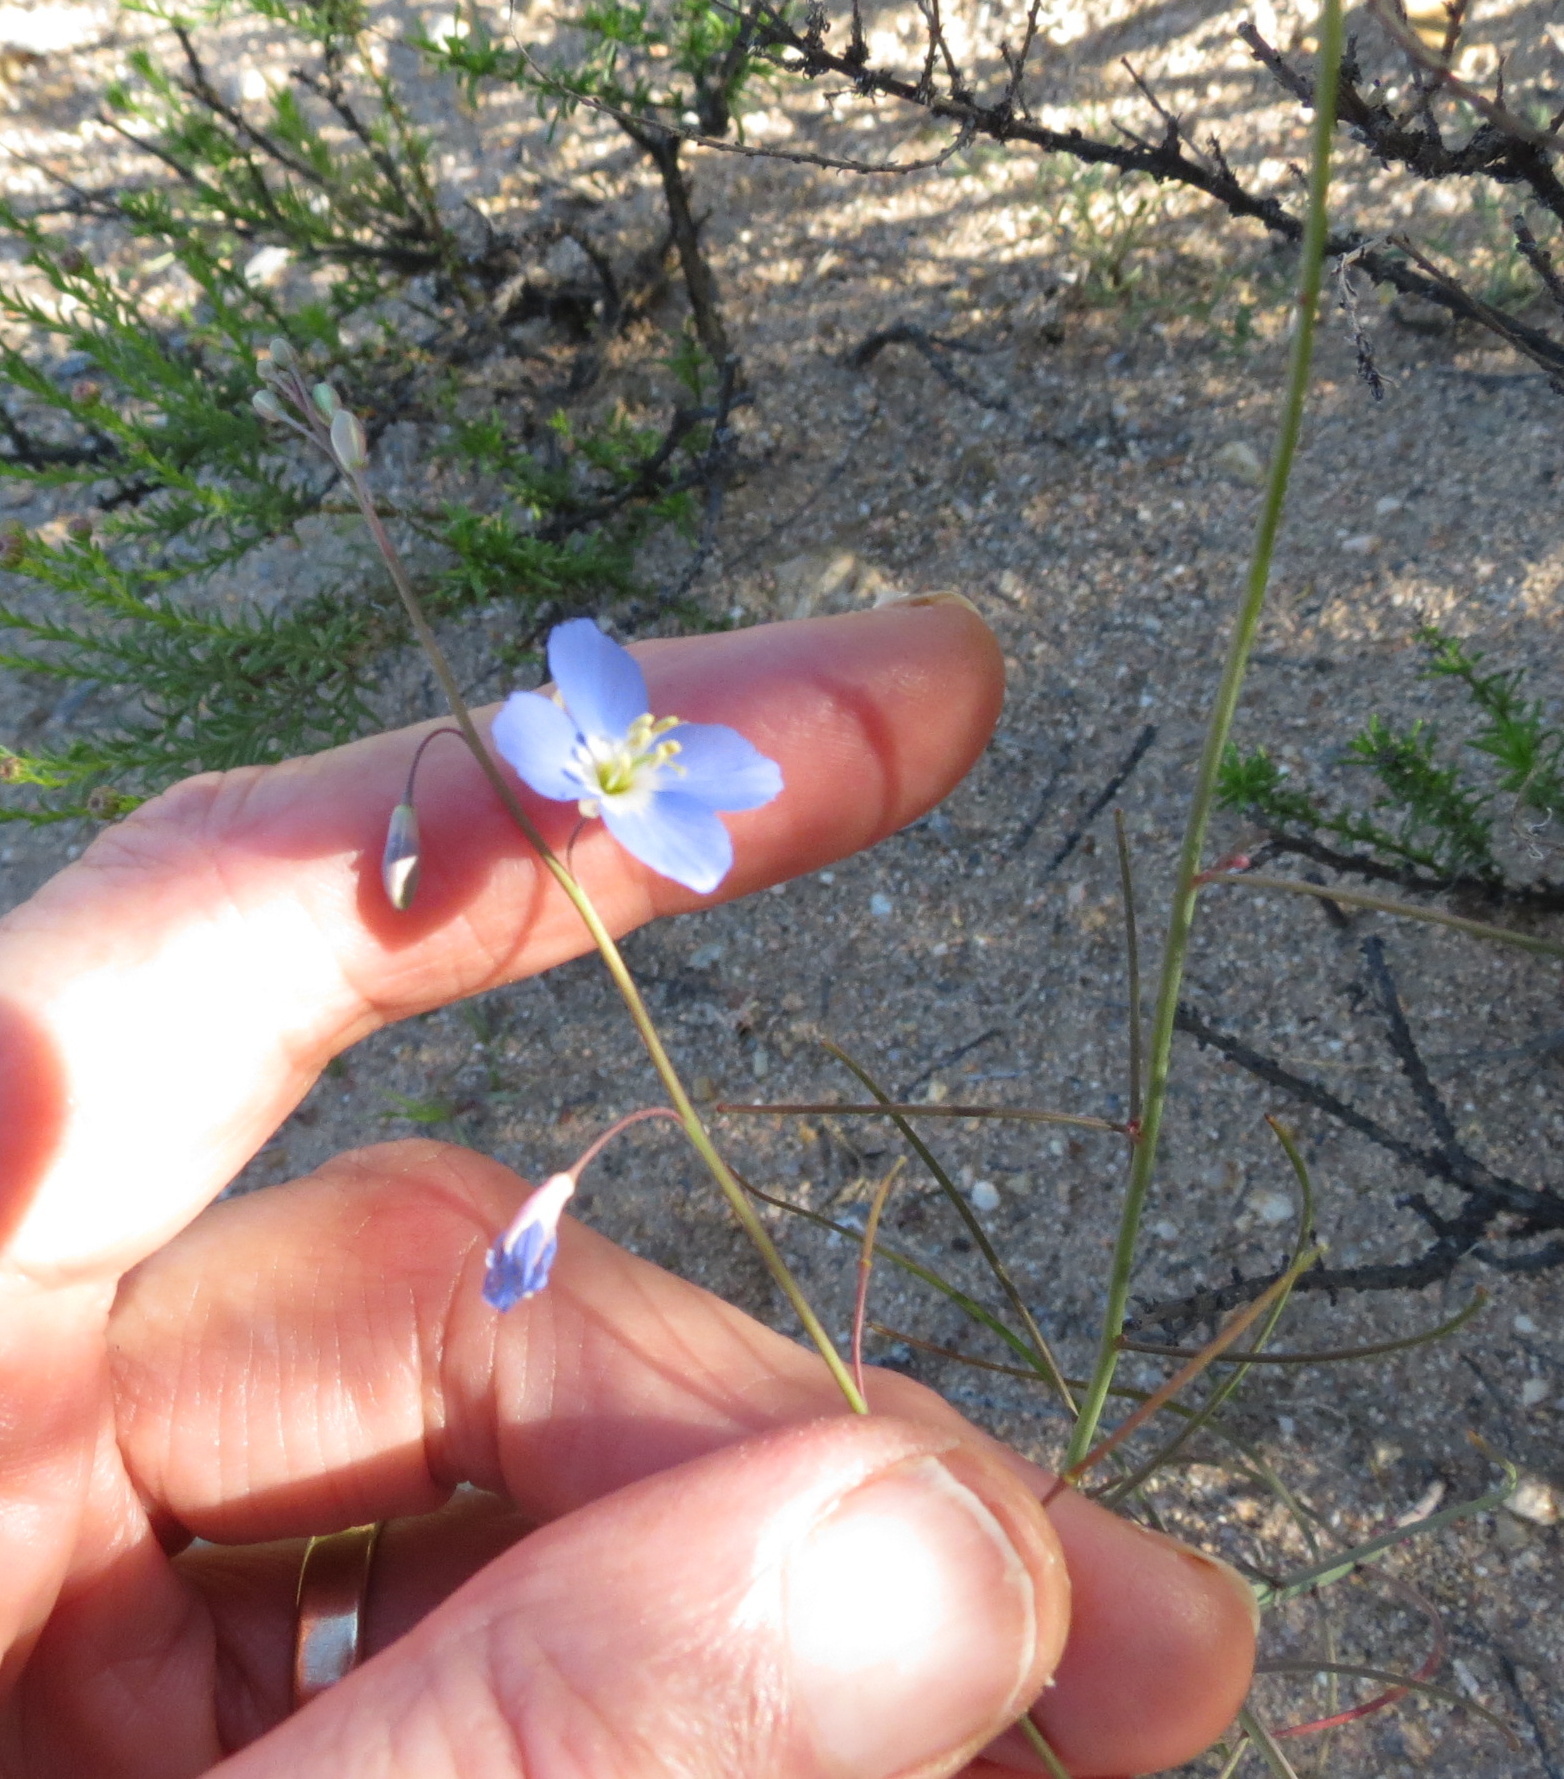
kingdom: Plantae
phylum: Tracheophyta
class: Magnoliopsida
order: Brassicales
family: Brassicaceae
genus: Heliophila
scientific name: Heliophila lactea
